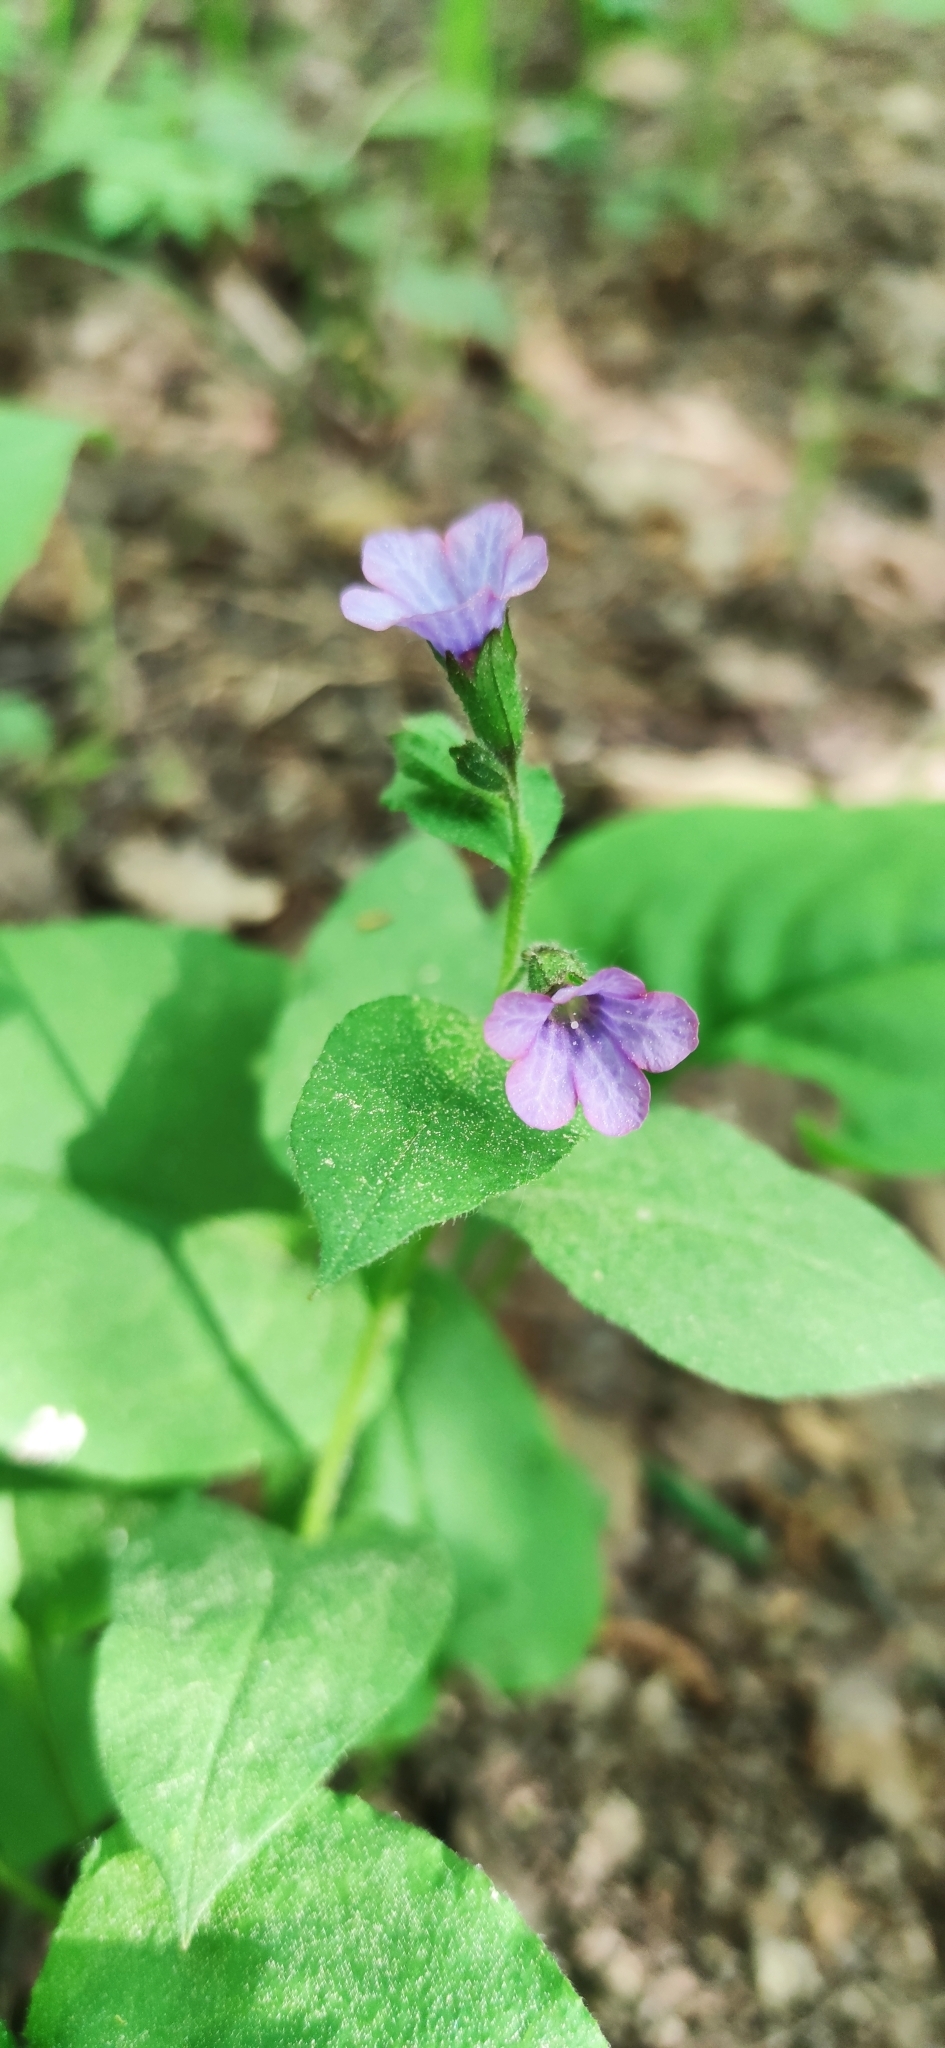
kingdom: Plantae
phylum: Tracheophyta
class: Magnoliopsida
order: Boraginales
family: Boraginaceae
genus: Pulmonaria
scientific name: Pulmonaria obscura
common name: Suffolk lungwort
